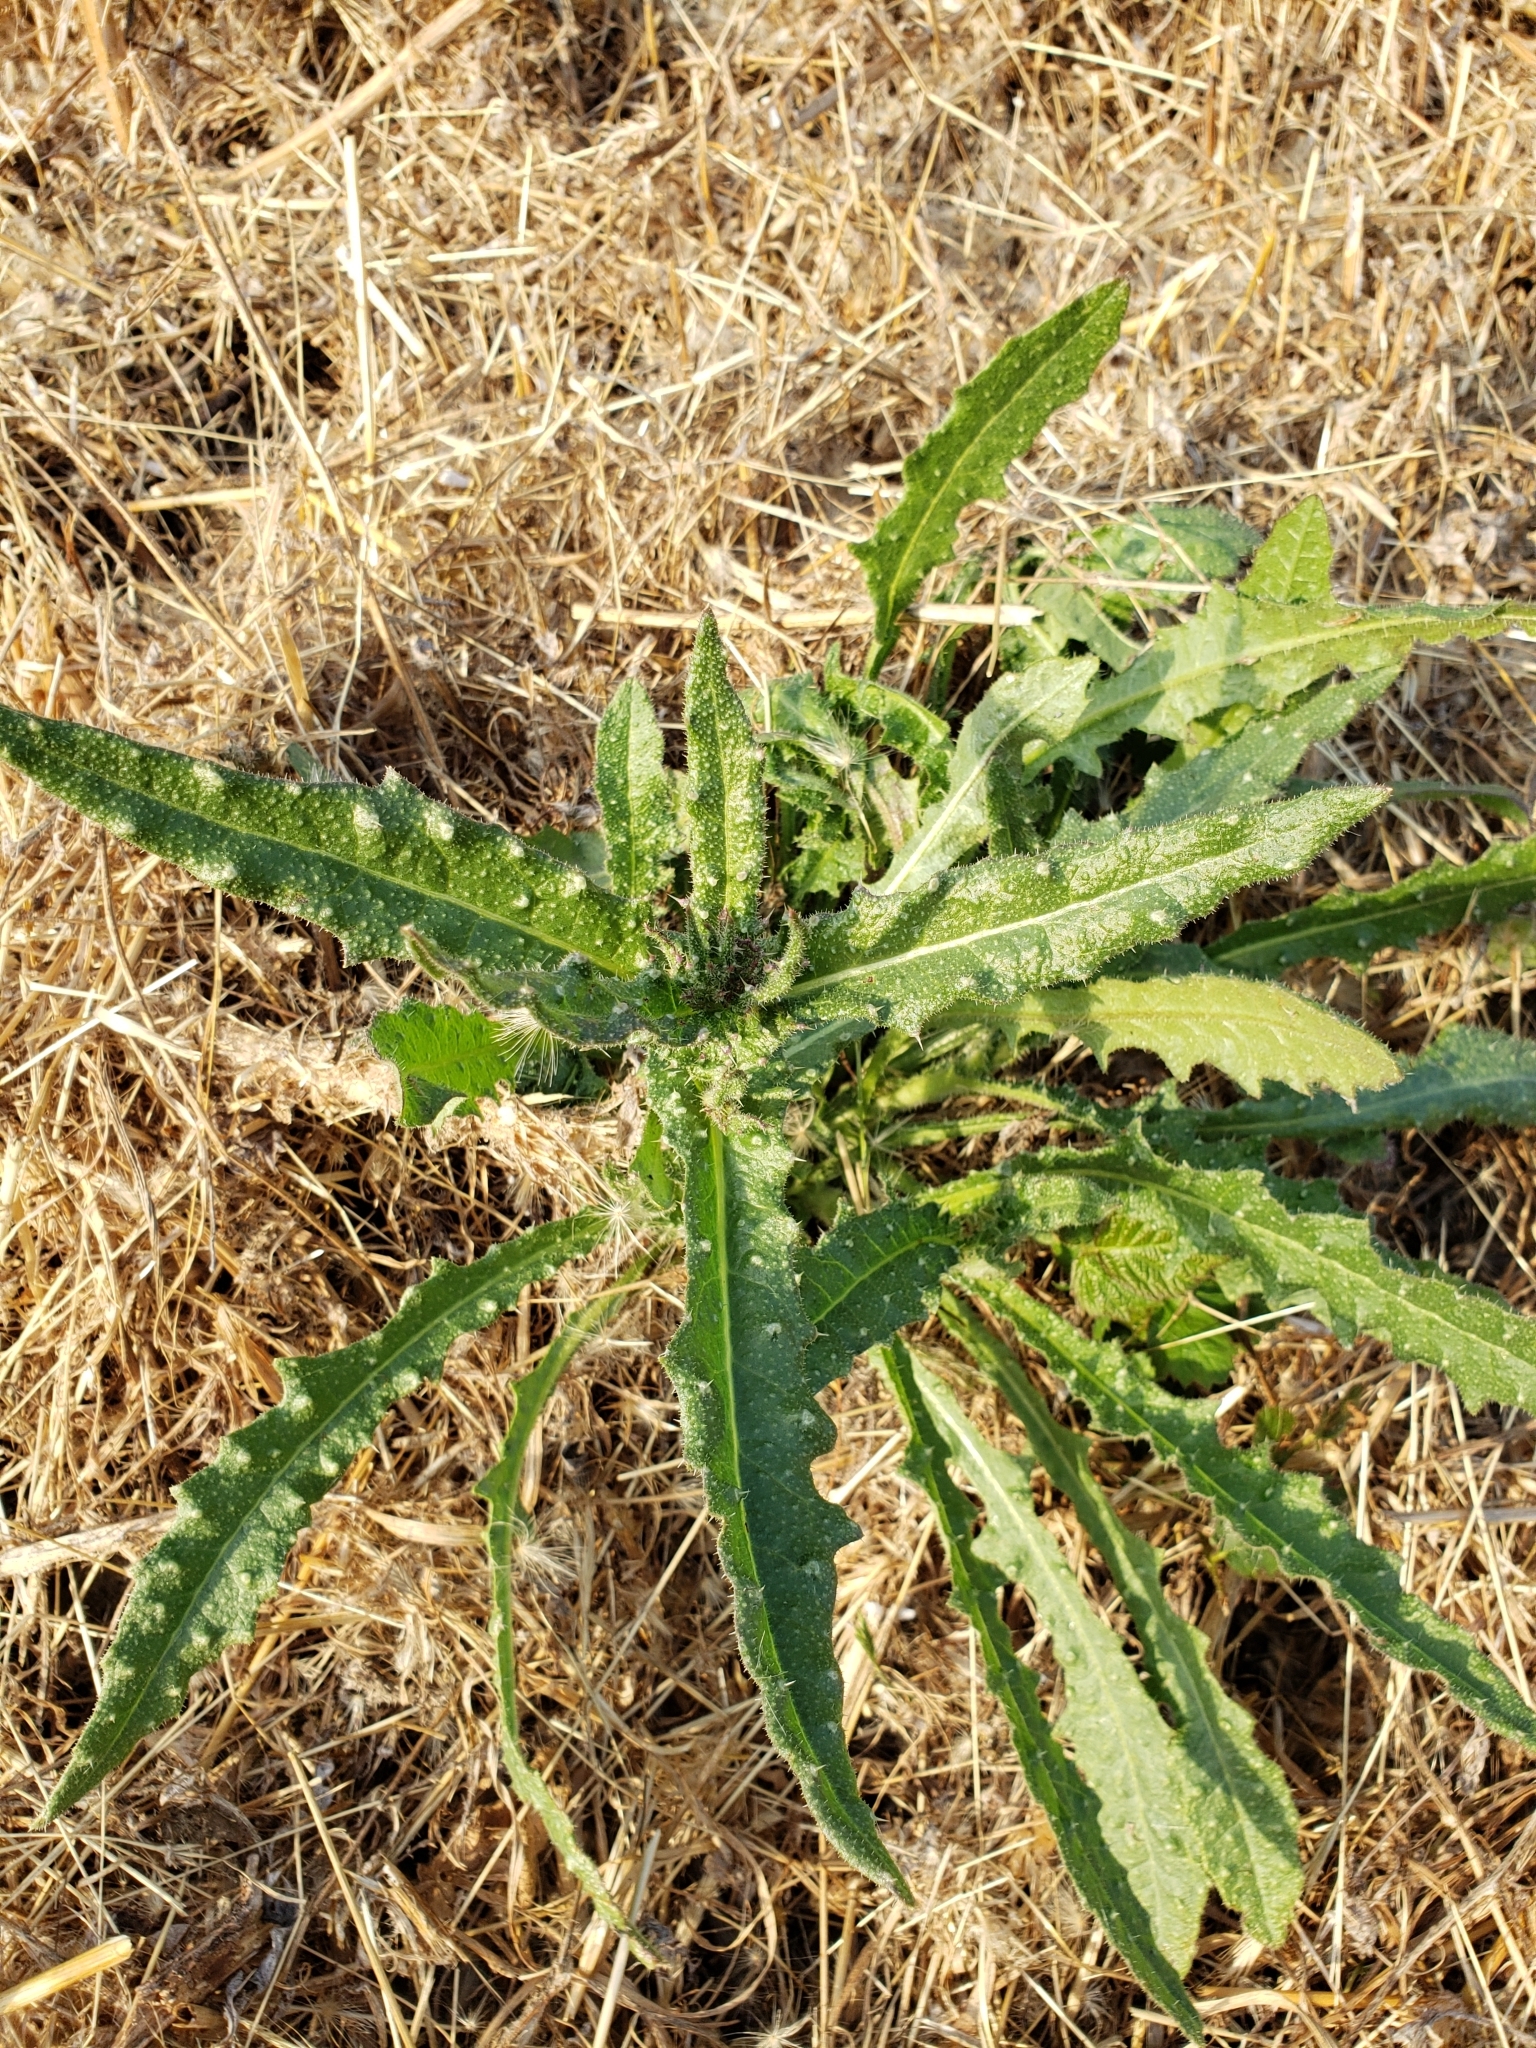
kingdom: Plantae
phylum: Tracheophyta
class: Magnoliopsida
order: Asterales
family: Asteraceae
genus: Helminthotheca
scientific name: Helminthotheca echioides
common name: Ox-tongue
